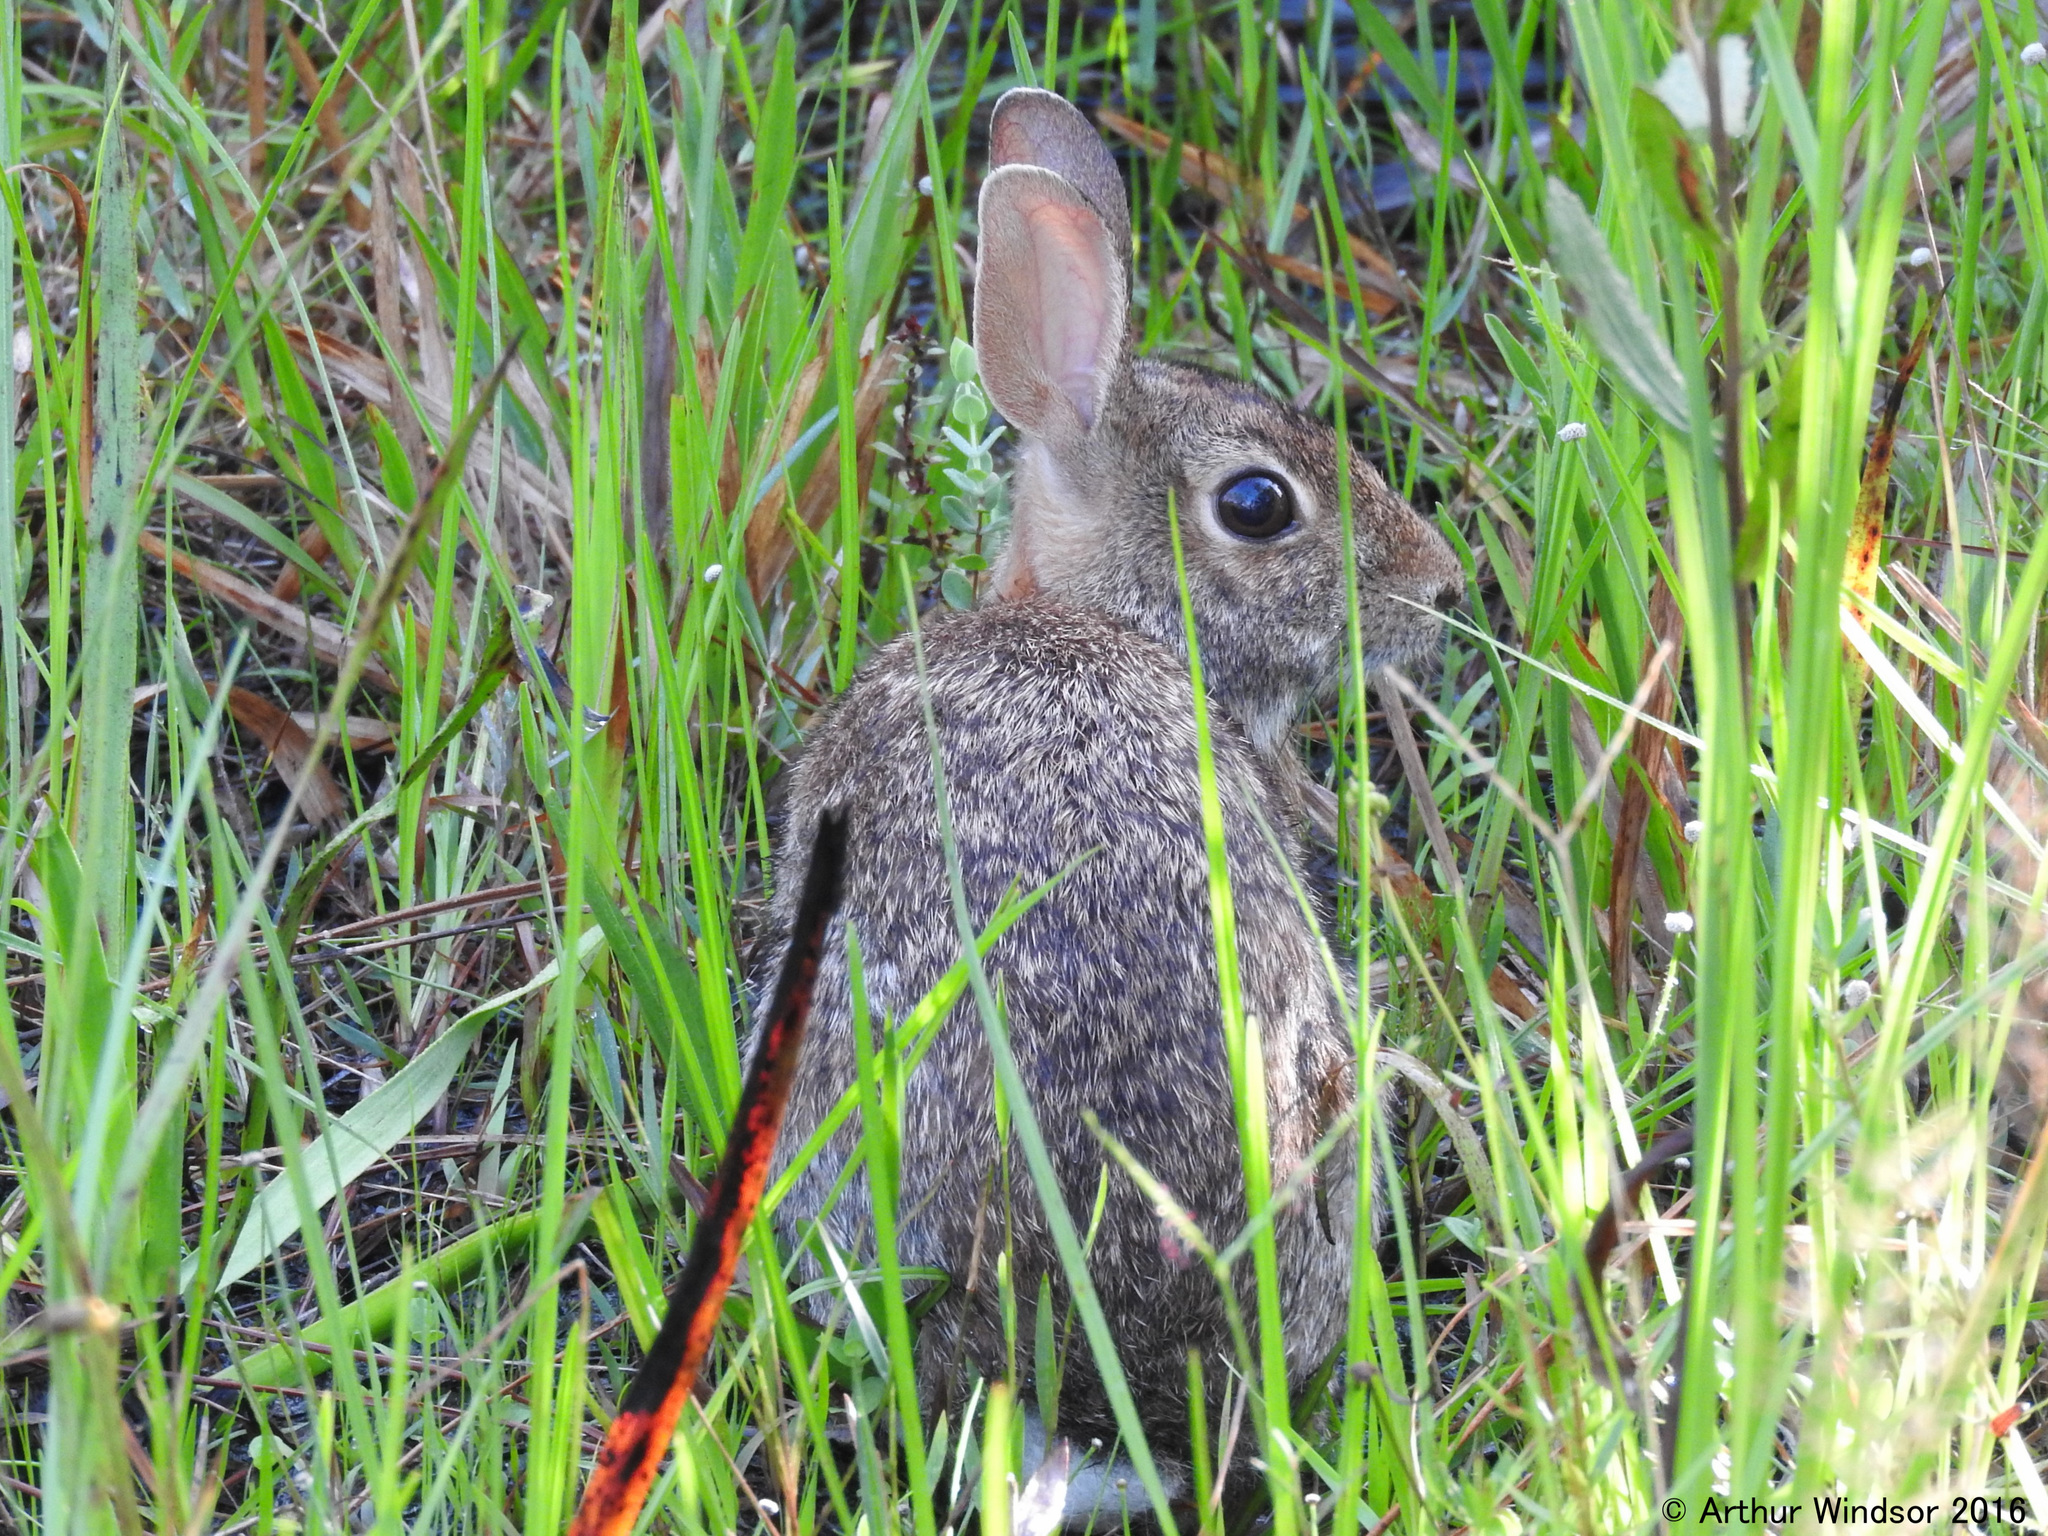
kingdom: Animalia
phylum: Chordata
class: Mammalia
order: Lagomorpha
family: Leporidae
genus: Sylvilagus
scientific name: Sylvilagus floridanus
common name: Eastern cottontail
